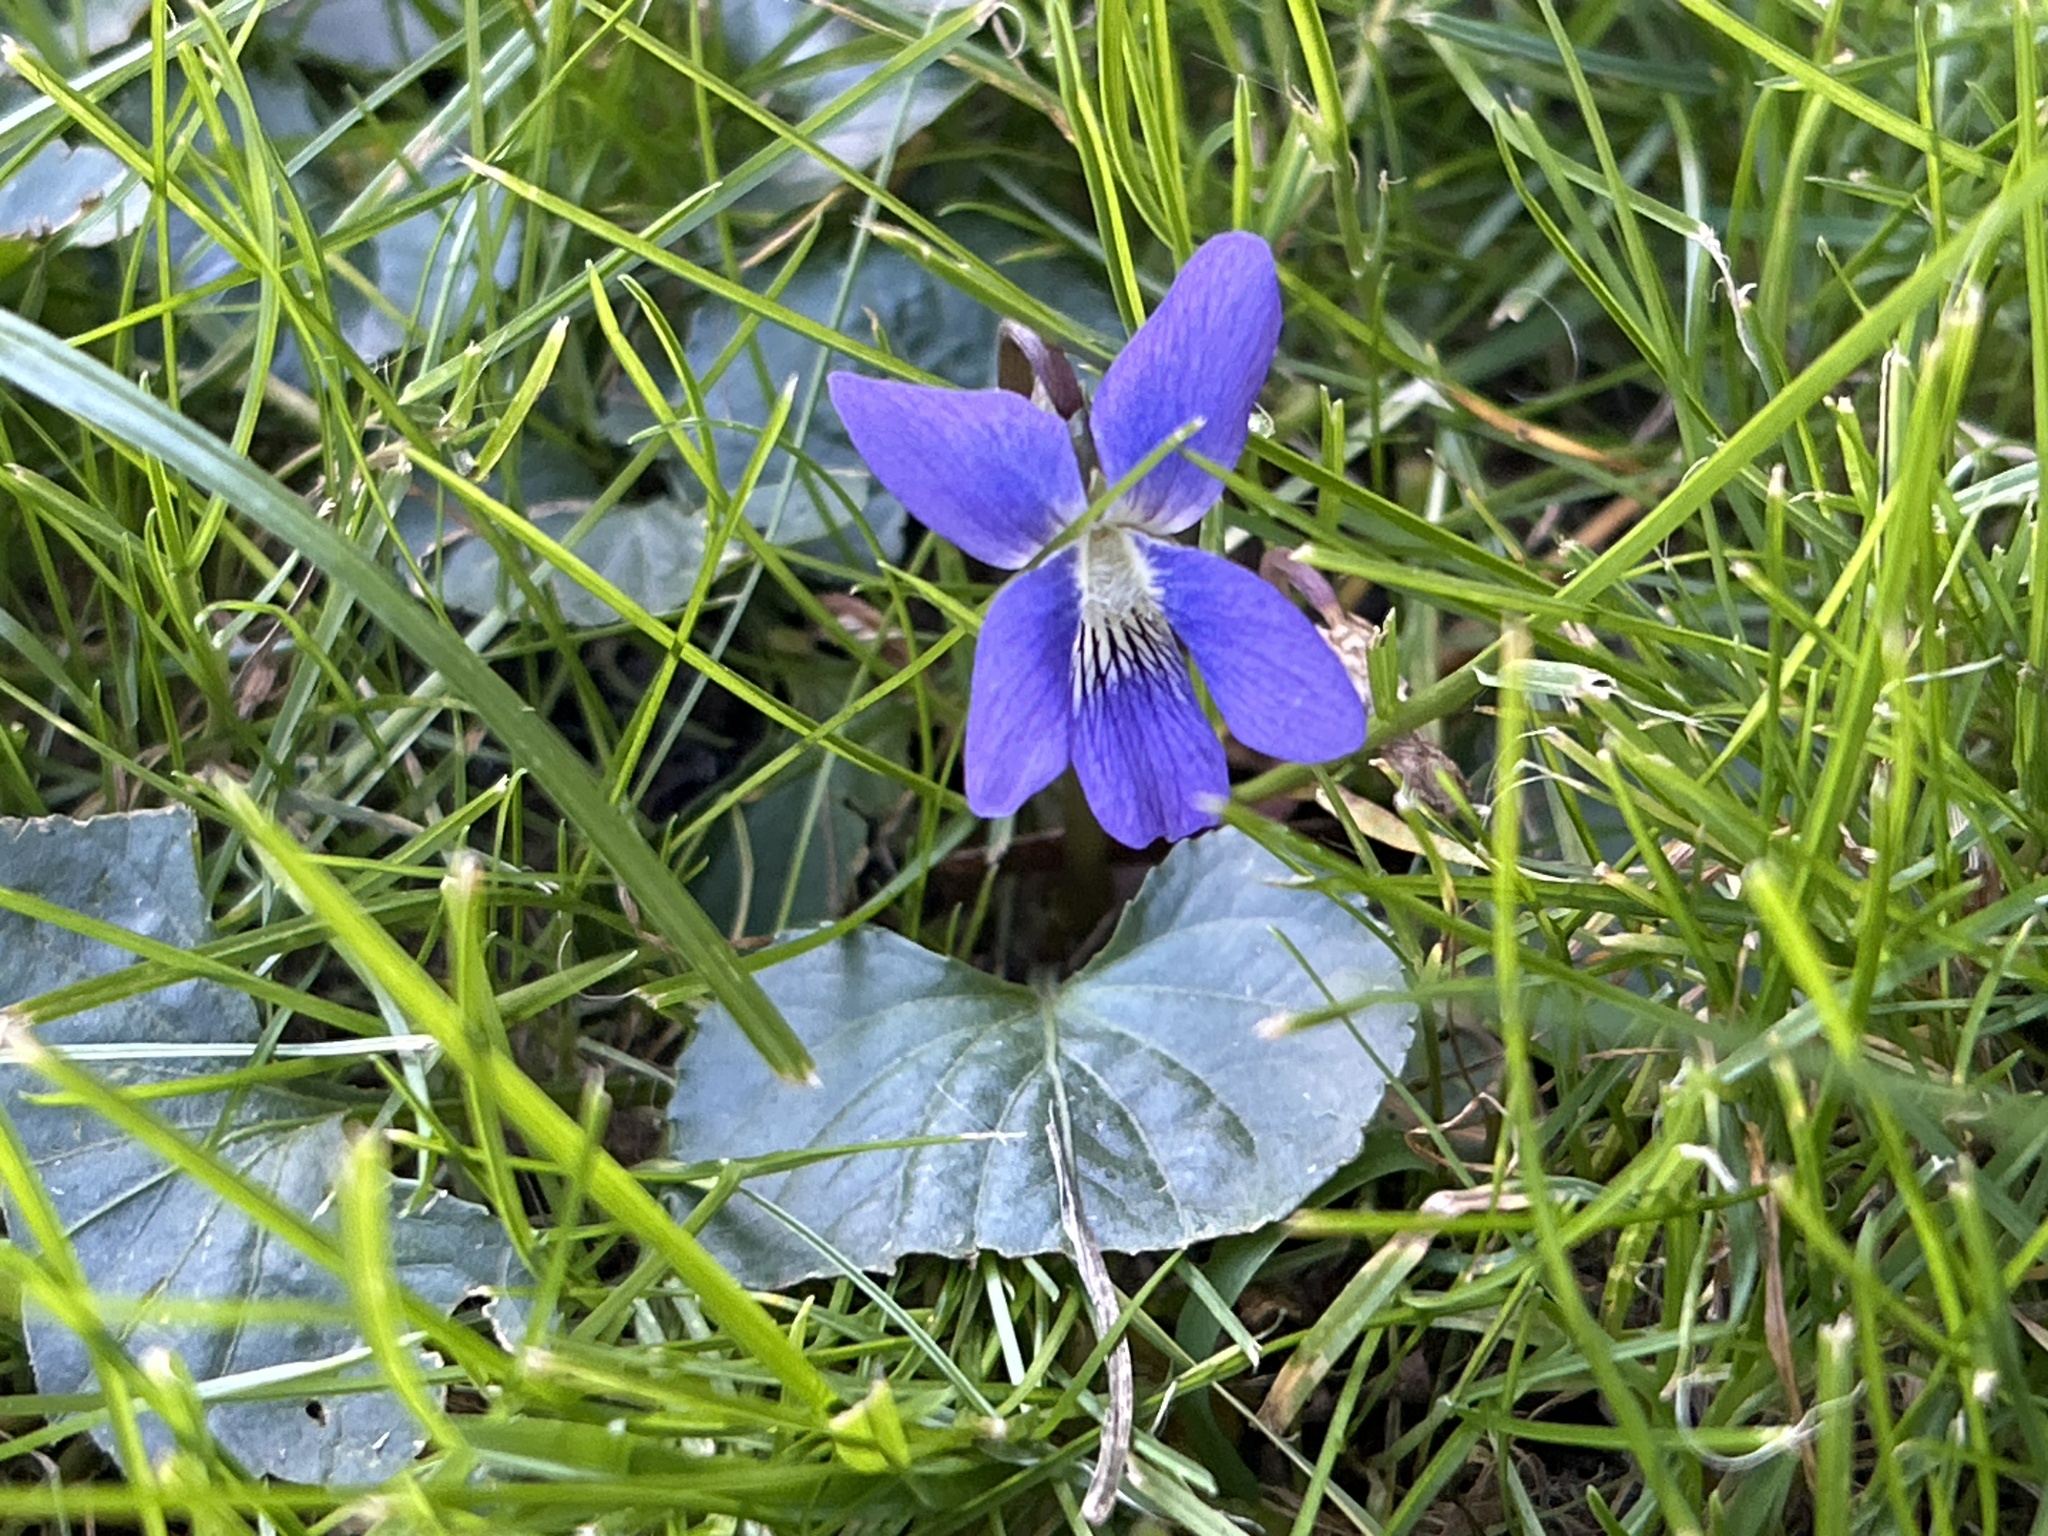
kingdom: Plantae
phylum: Tracheophyta
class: Magnoliopsida
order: Malpighiales
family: Violaceae
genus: Viola
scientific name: Viola sororia
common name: Dooryard violet
